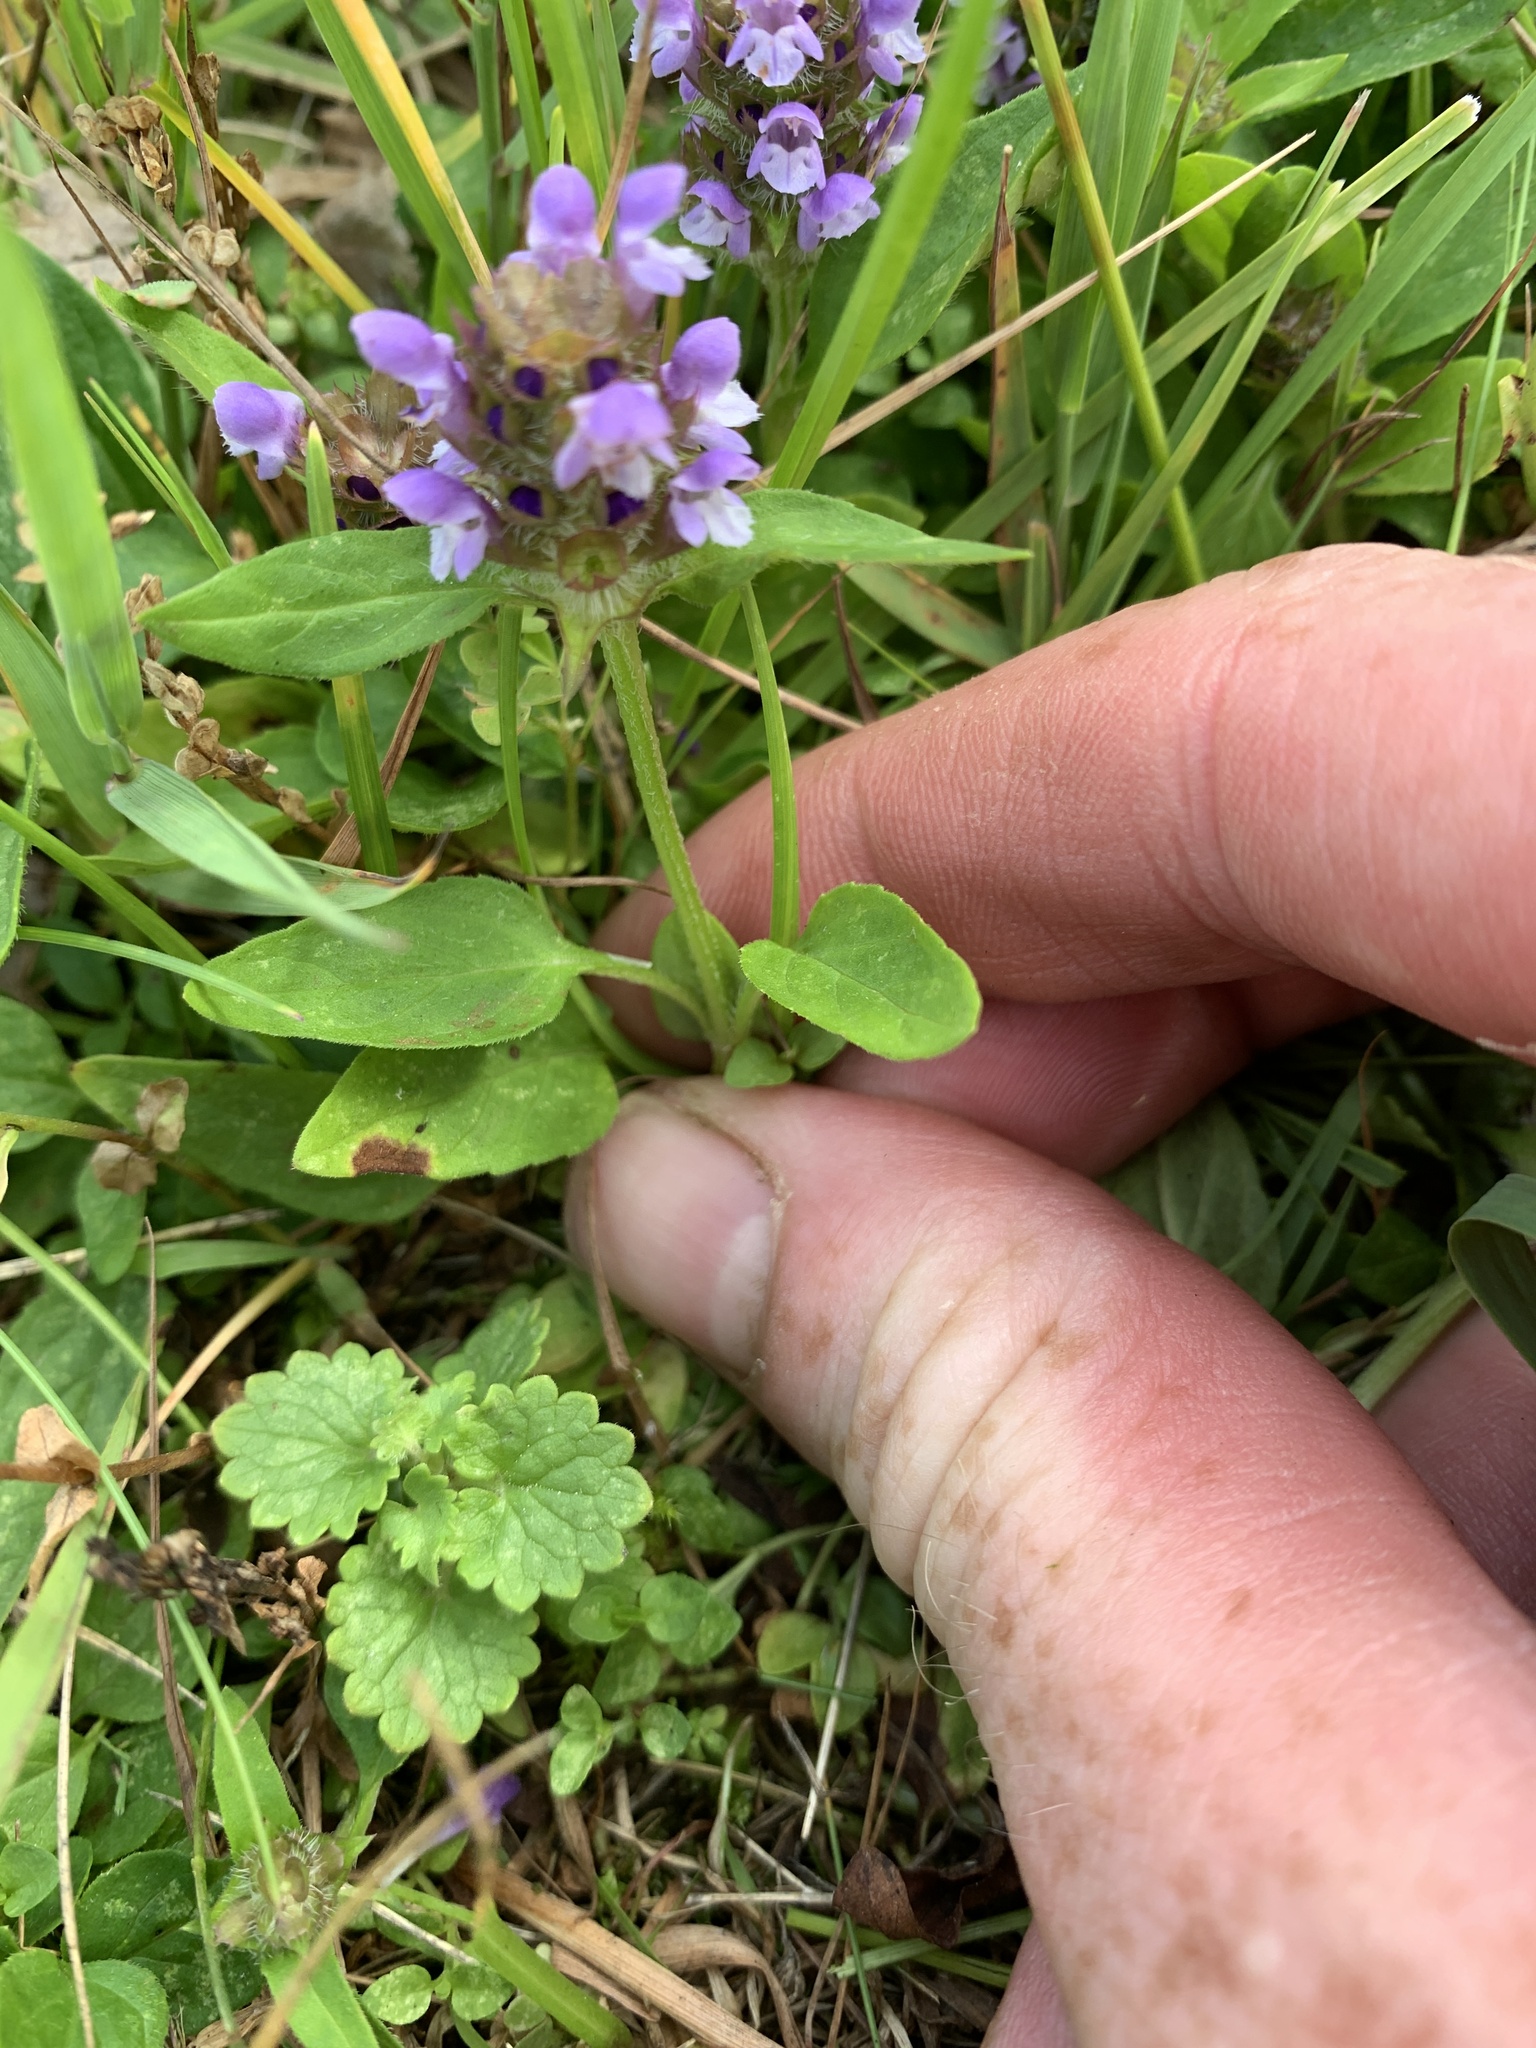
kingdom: Plantae
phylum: Tracheophyta
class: Magnoliopsida
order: Lamiales
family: Lamiaceae
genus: Prunella
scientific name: Prunella vulgaris
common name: Heal-all
